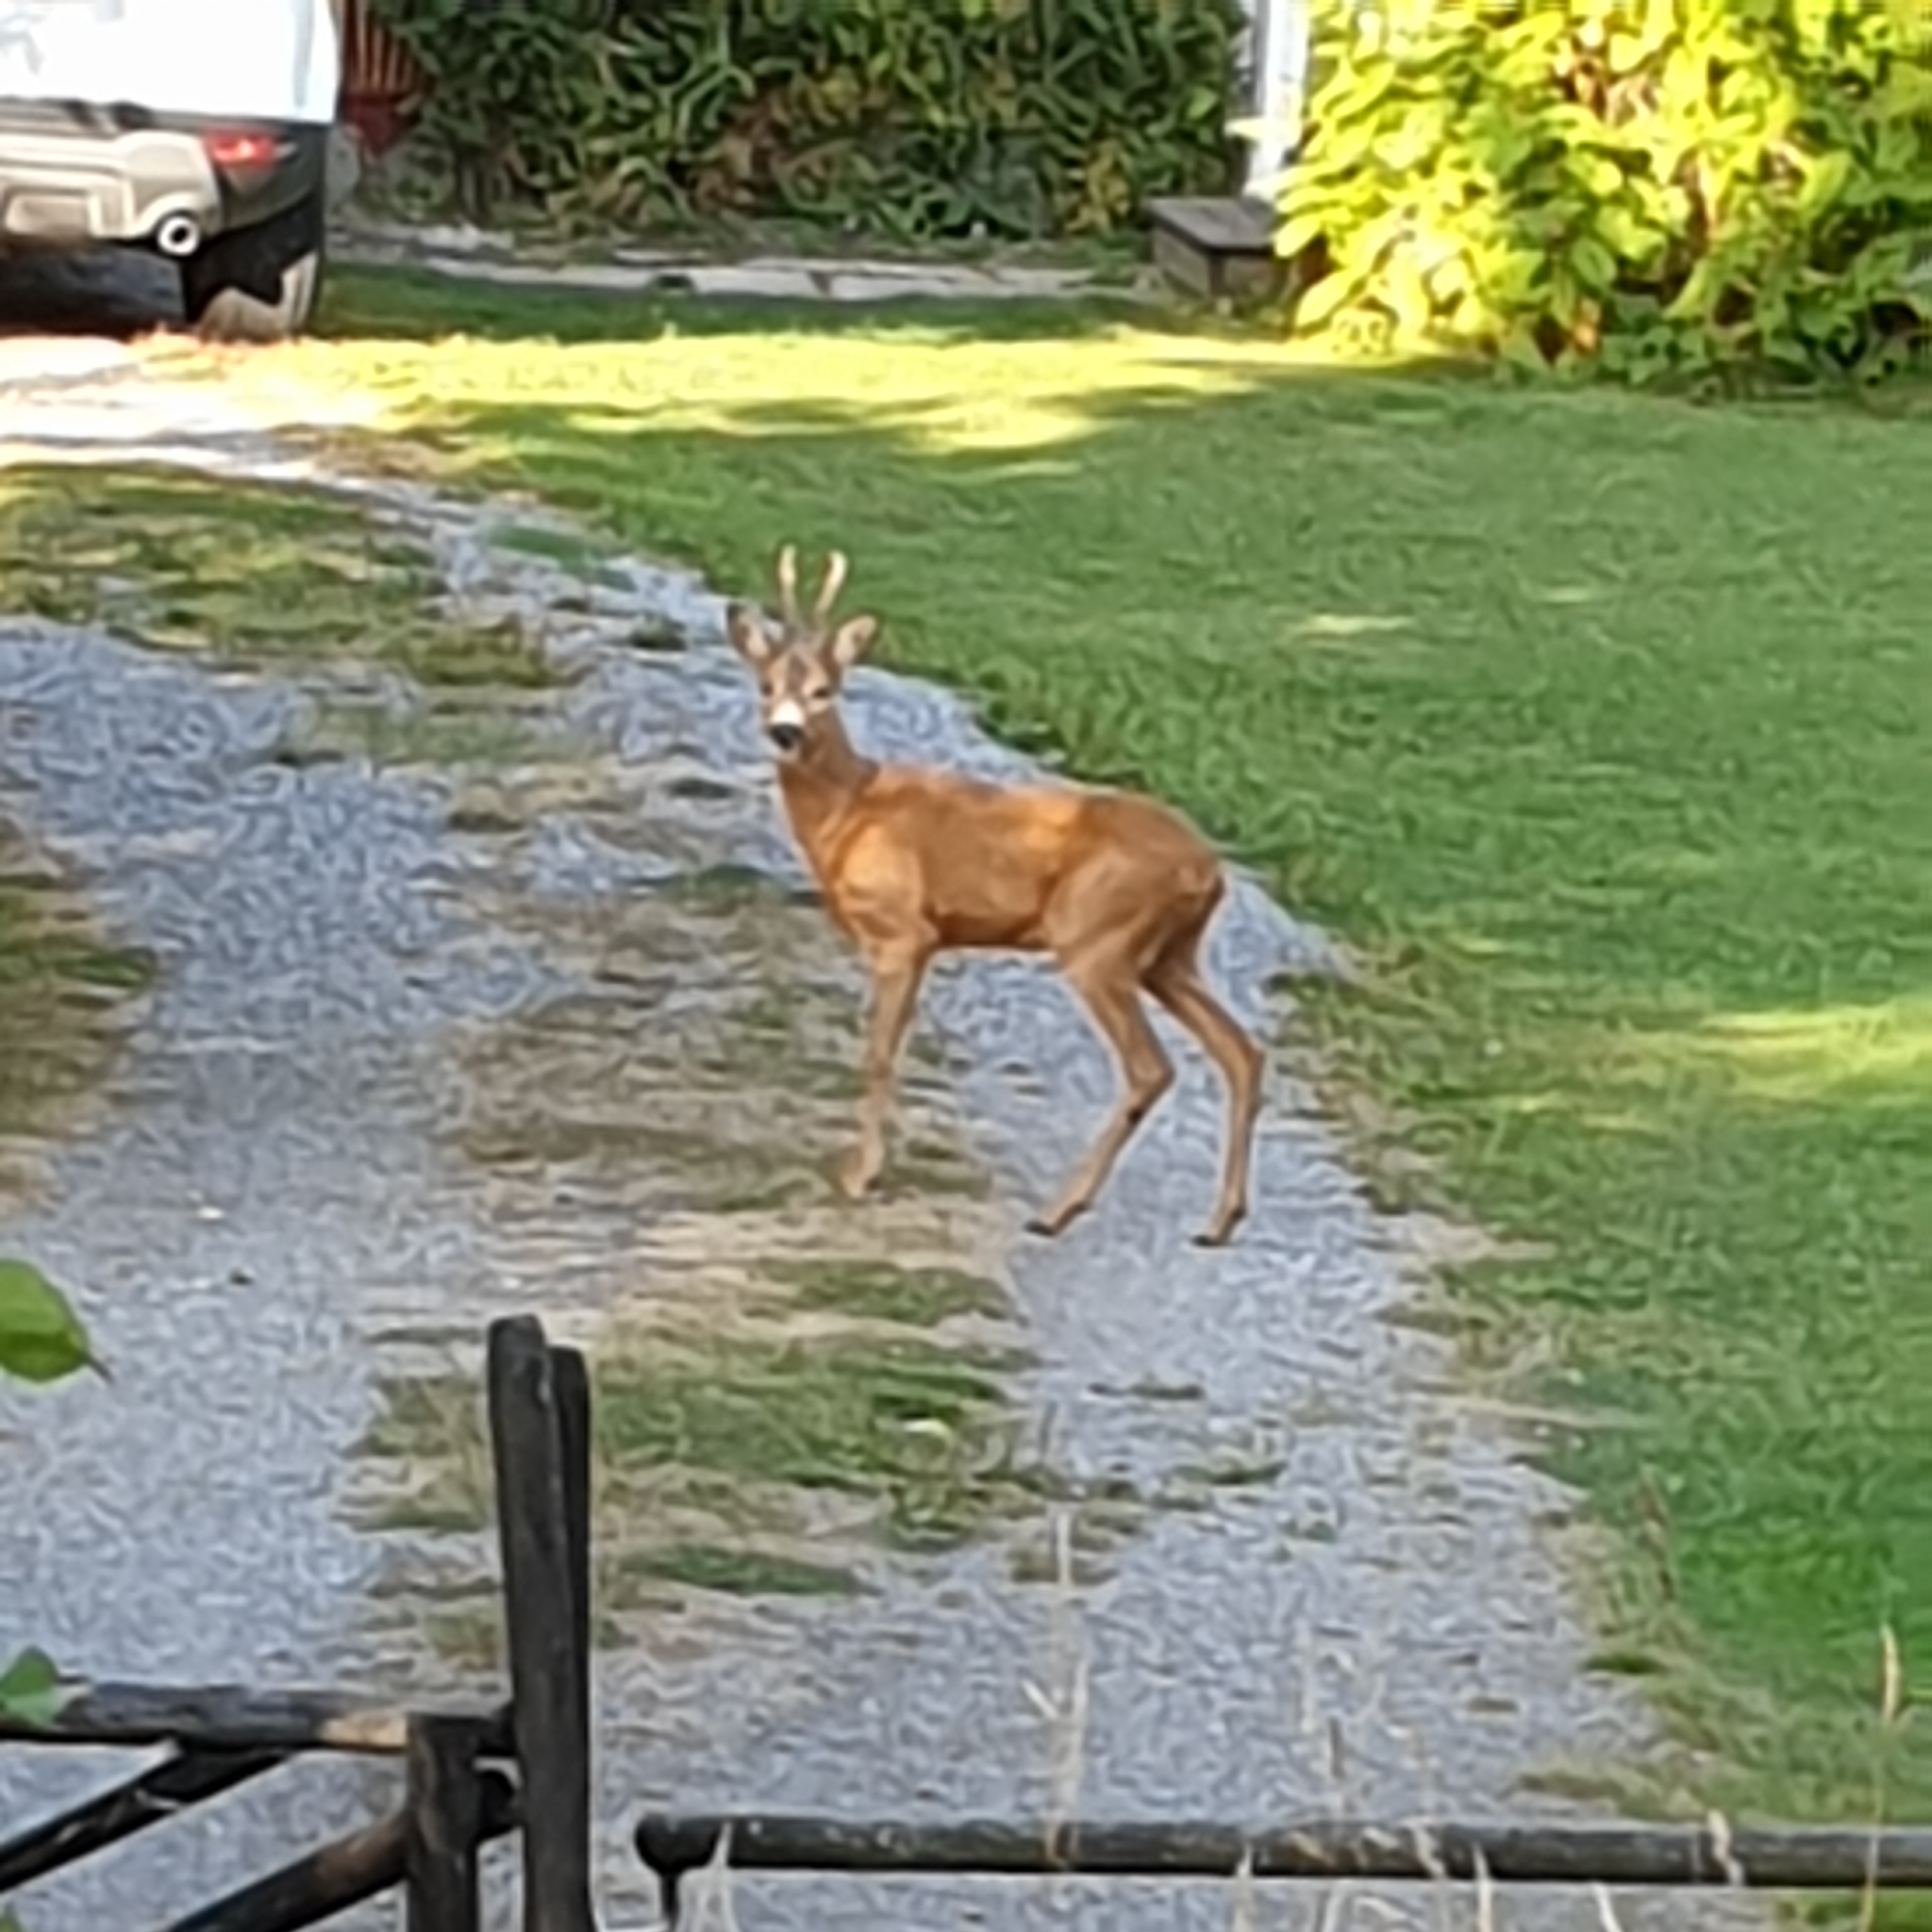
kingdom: Animalia
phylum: Chordata
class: Mammalia
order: Artiodactyla
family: Cervidae
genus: Capreolus
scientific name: Capreolus capreolus
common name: Western roe deer
